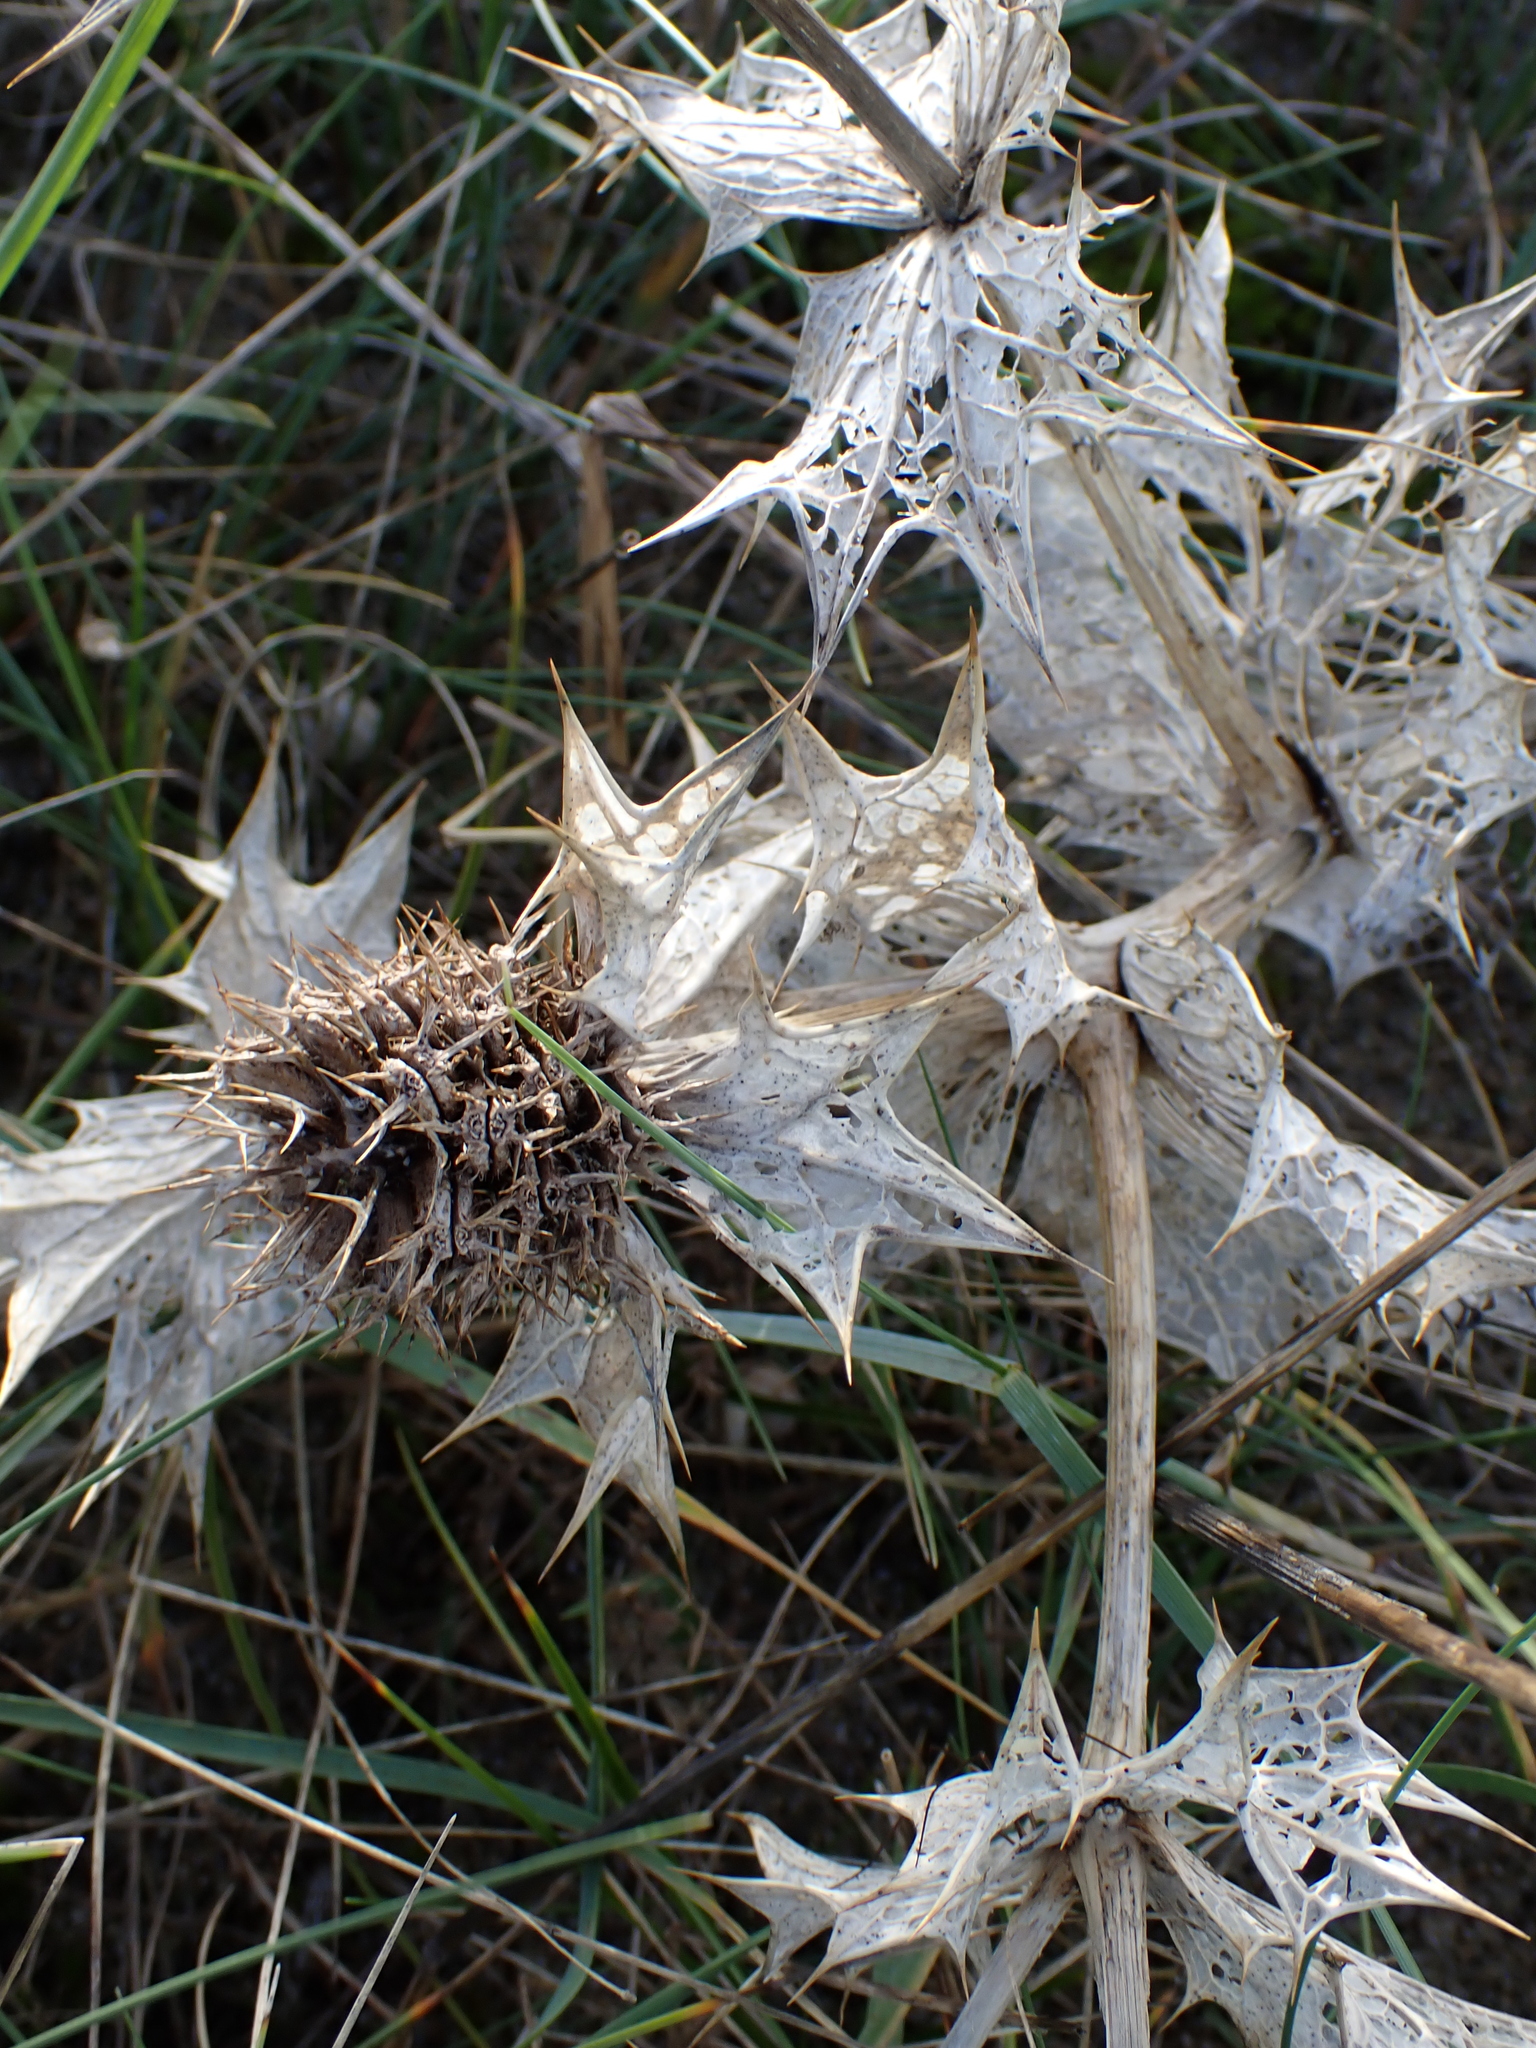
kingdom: Plantae
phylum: Tracheophyta
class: Magnoliopsida
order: Apiales
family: Apiaceae
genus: Eryngium
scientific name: Eryngium maritimum
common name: Sea-holly
